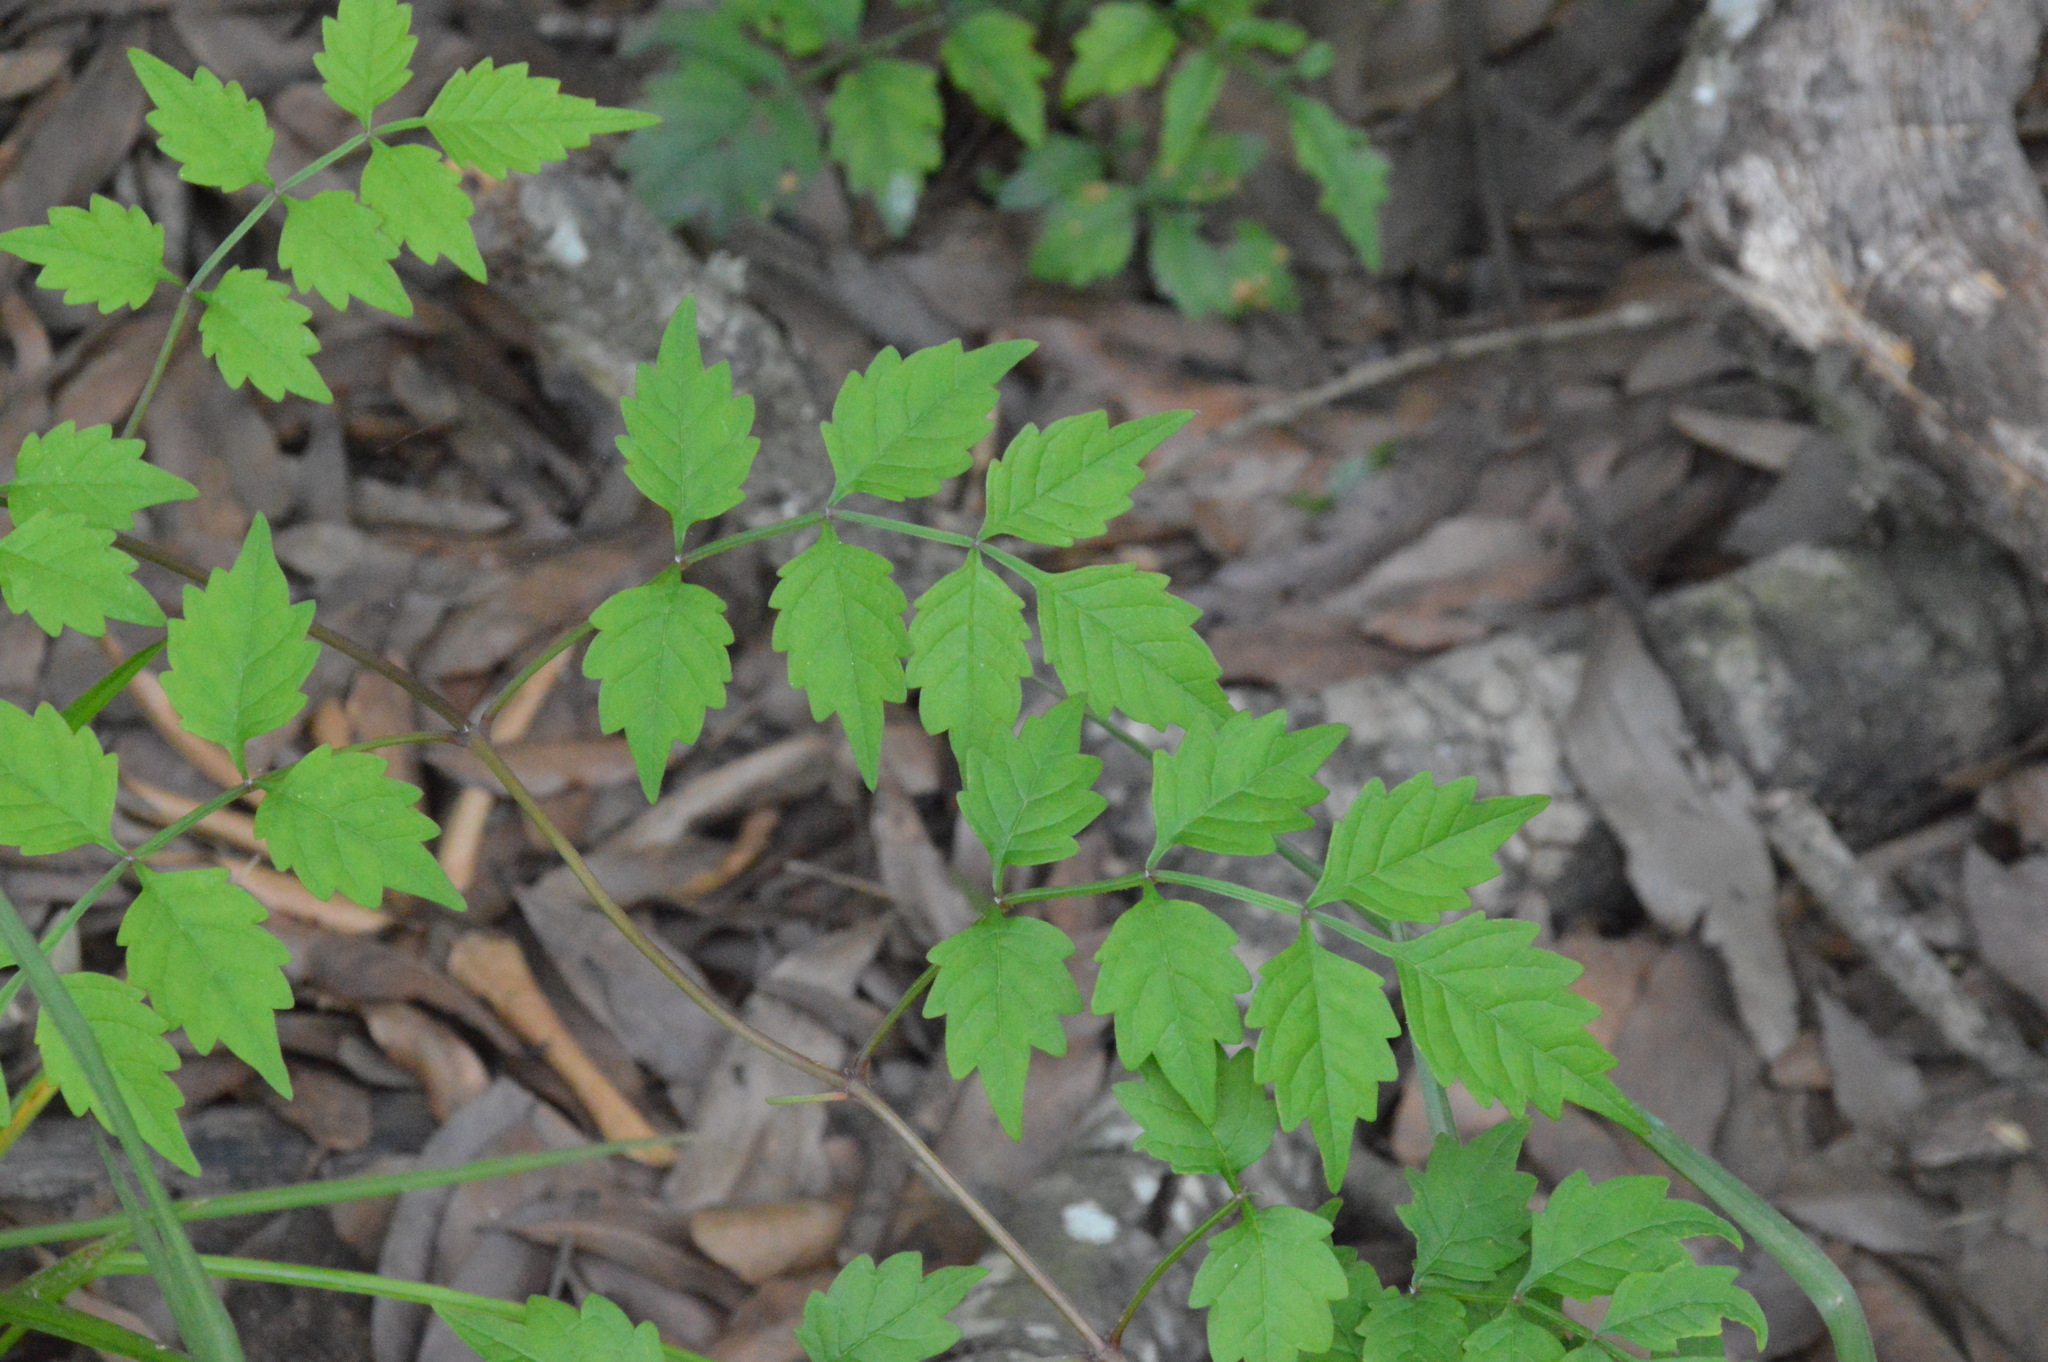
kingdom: Plantae
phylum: Tracheophyta
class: Magnoliopsida
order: Lamiales
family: Bignoniaceae
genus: Campsis
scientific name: Campsis radicans
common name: Trumpet-creeper
